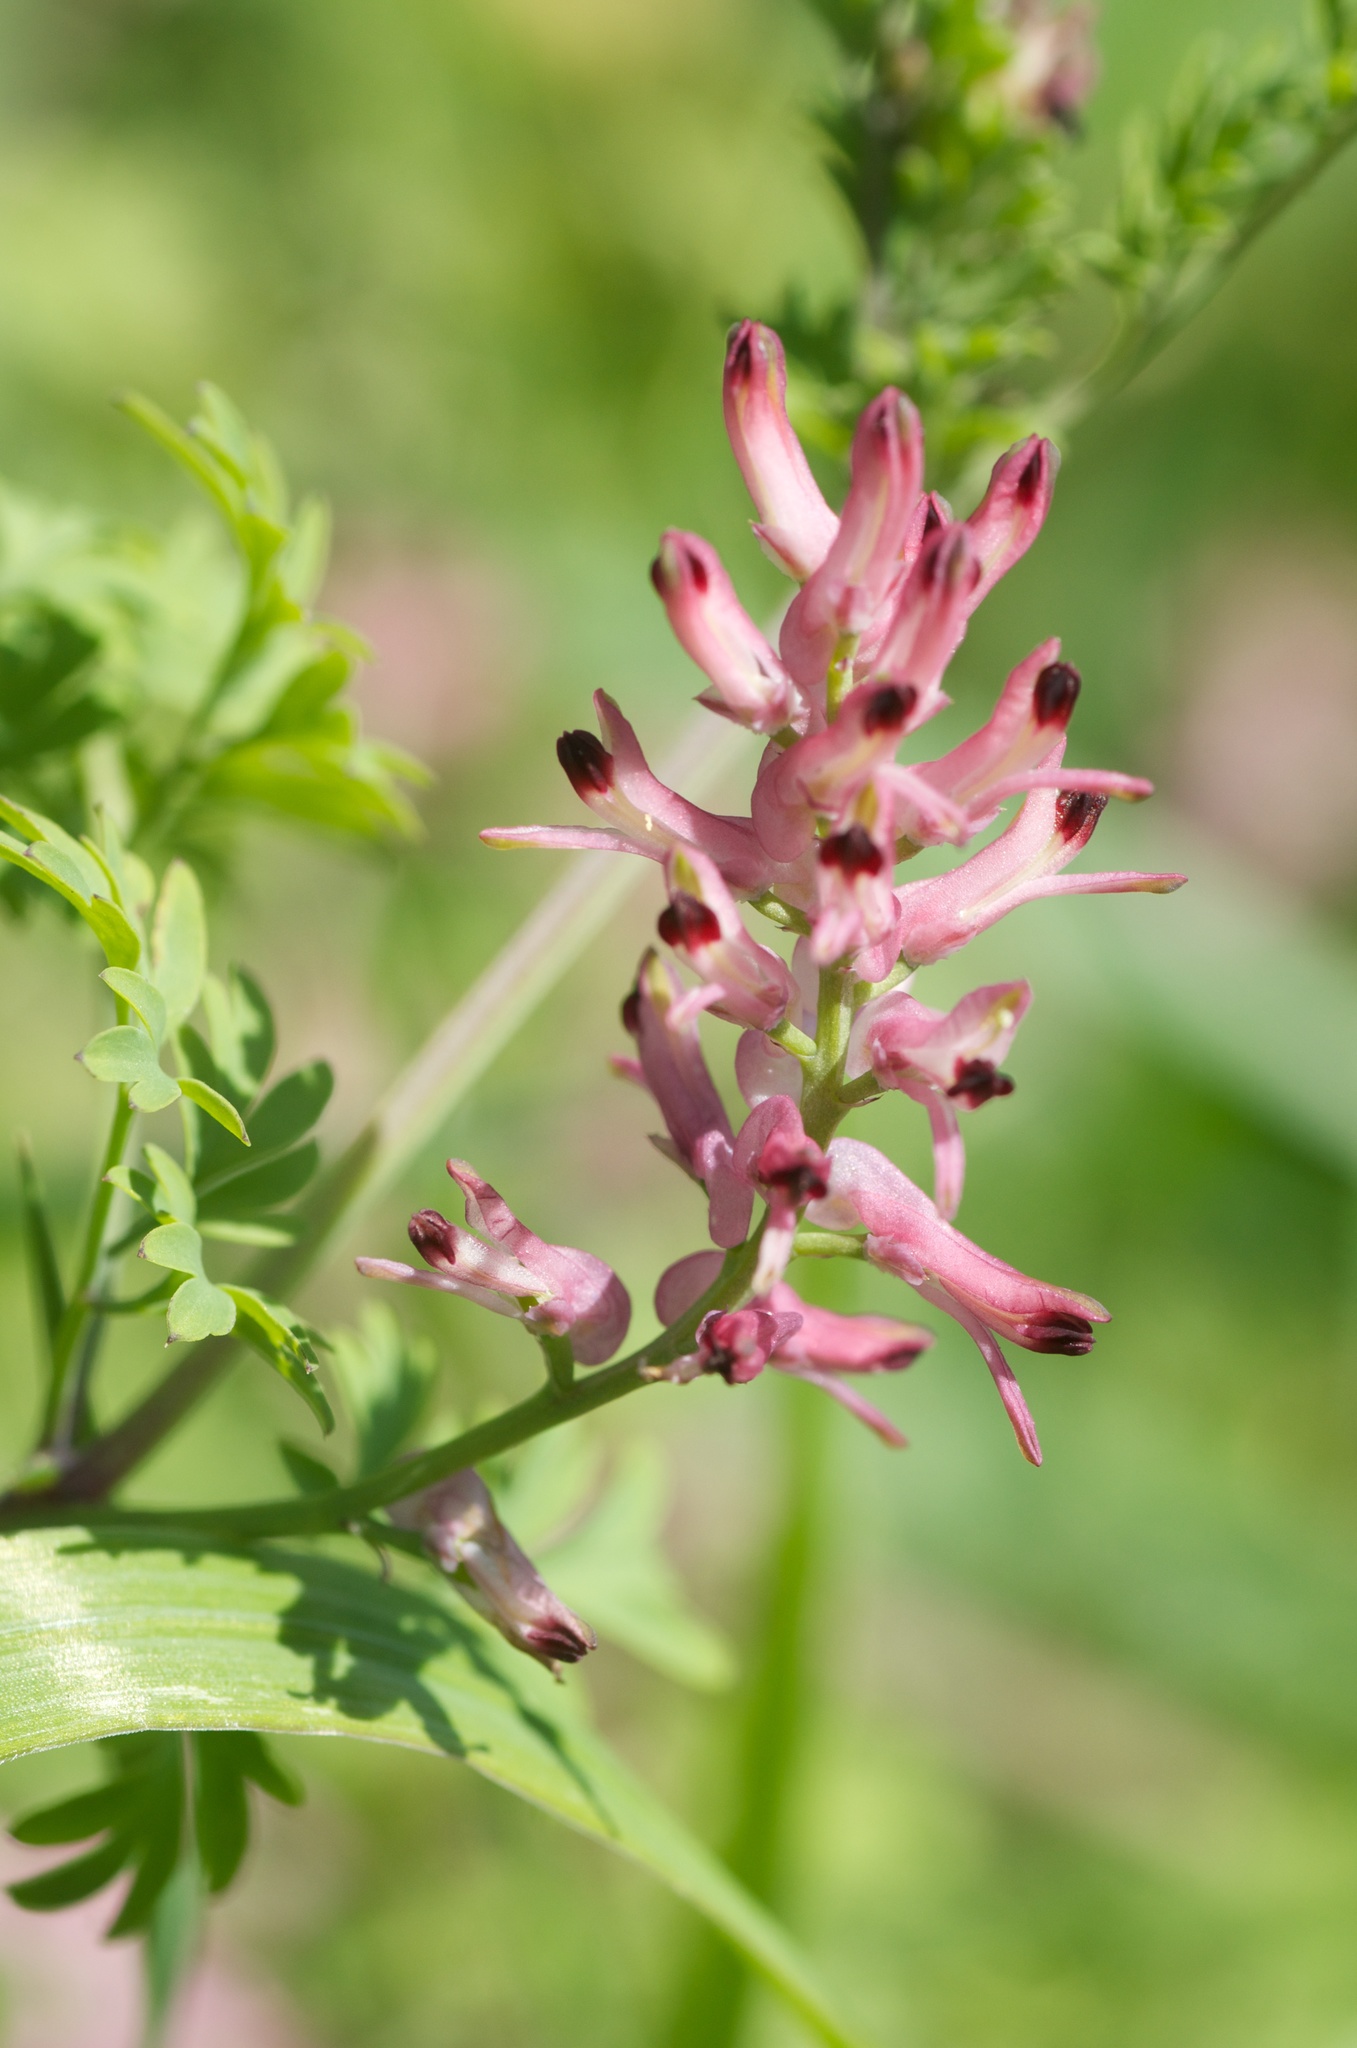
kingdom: Plantae
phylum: Tracheophyta
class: Magnoliopsida
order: Ranunculales
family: Papaveraceae
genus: Fumaria
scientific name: Fumaria bastardii
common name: Tall ramping-fumitory
